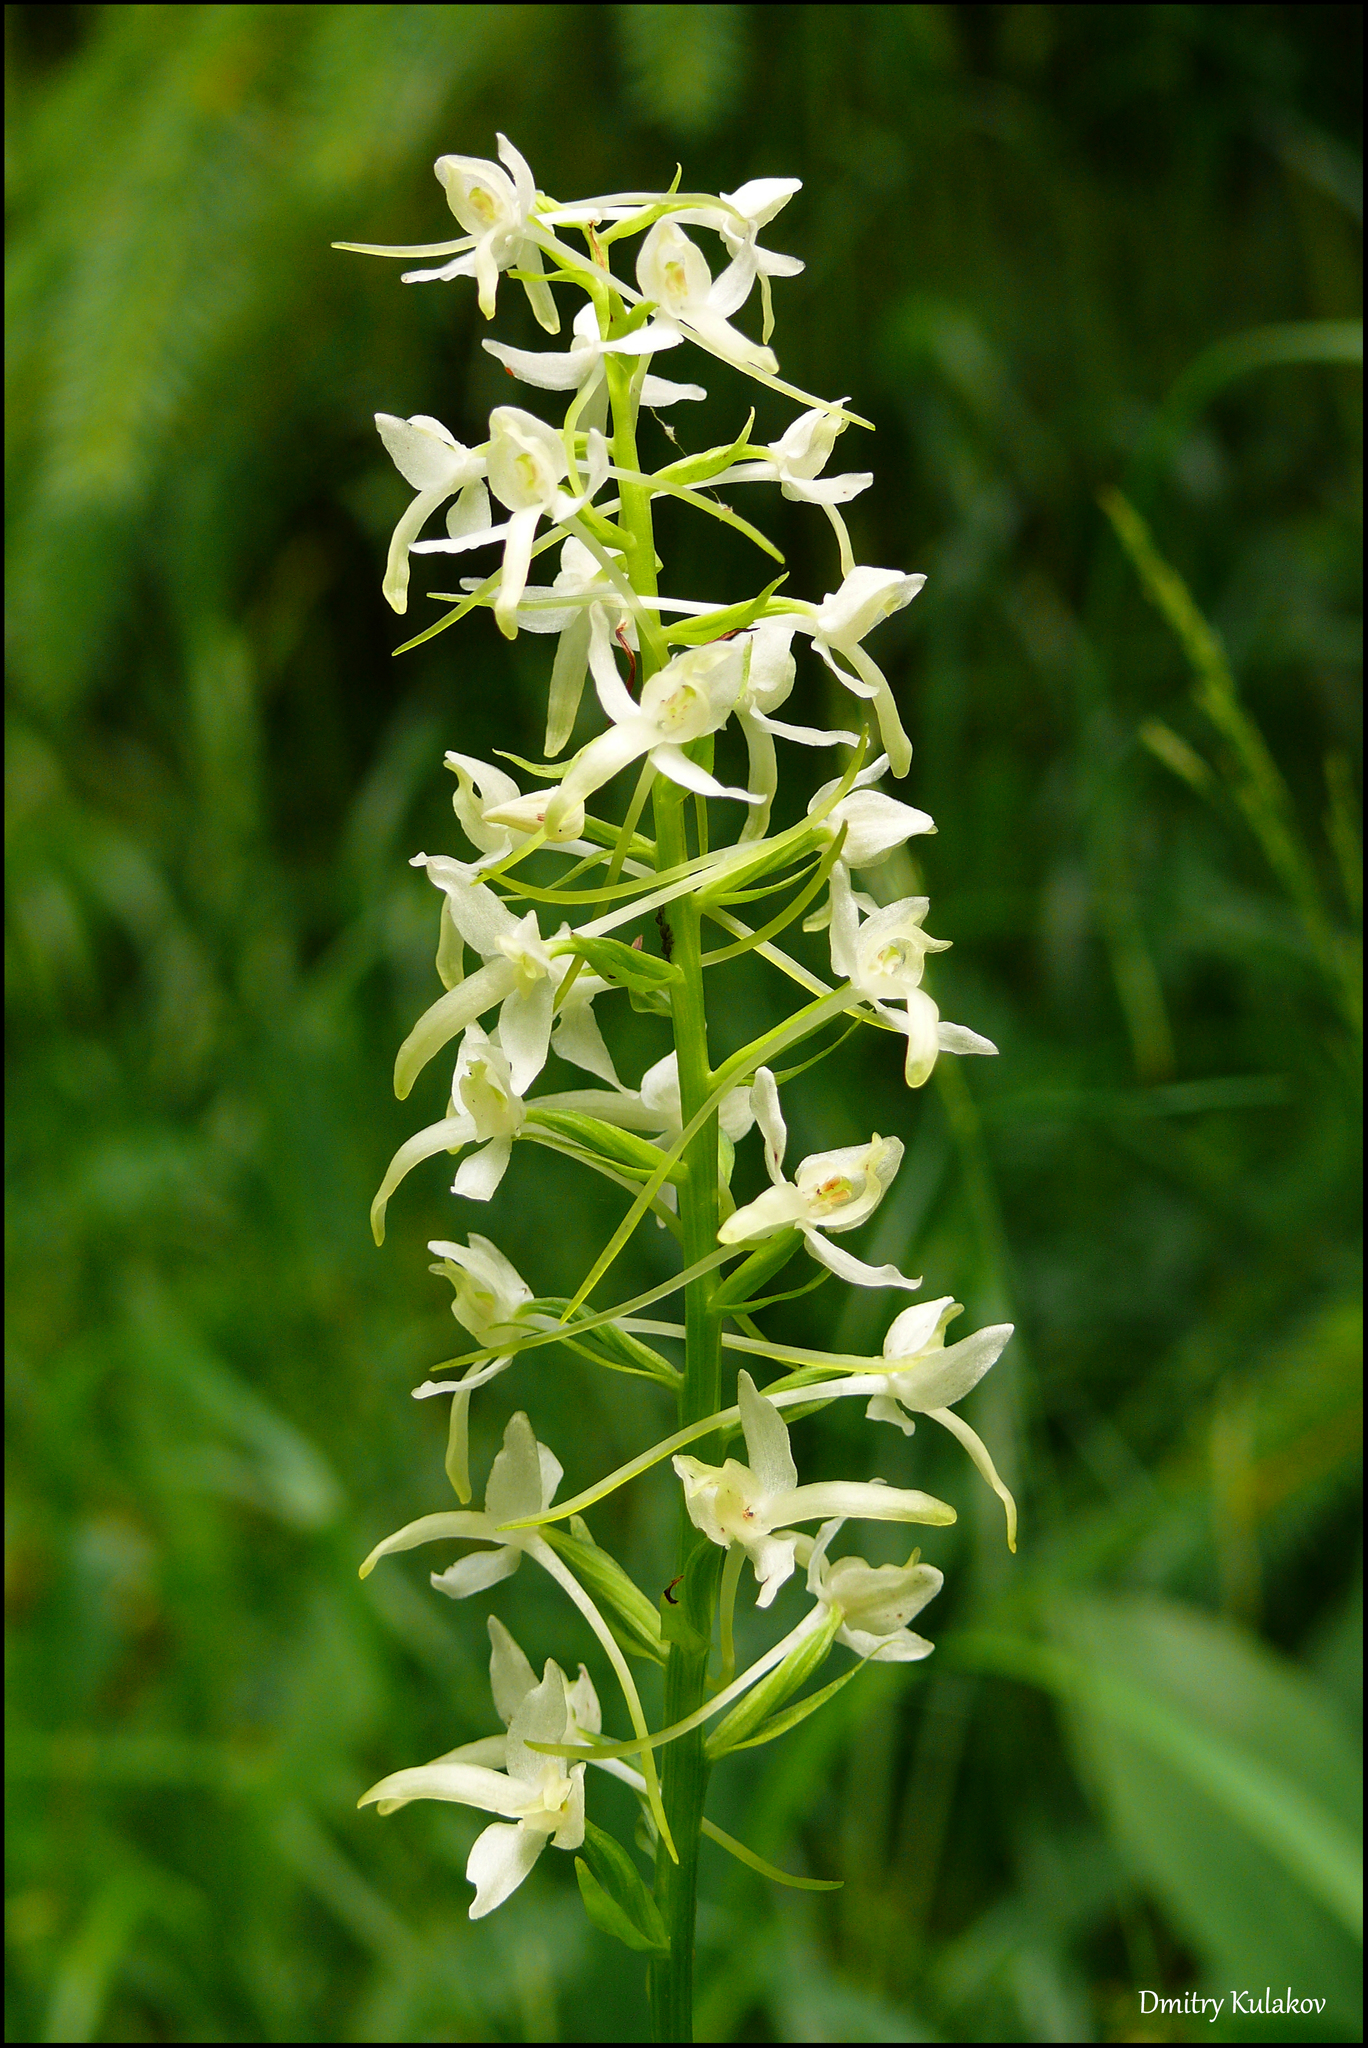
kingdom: Plantae
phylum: Tracheophyta
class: Liliopsida
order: Asparagales
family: Orchidaceae
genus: Platanthera
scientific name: Platanthera bifolia
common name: Lesser butterfly-orchid
